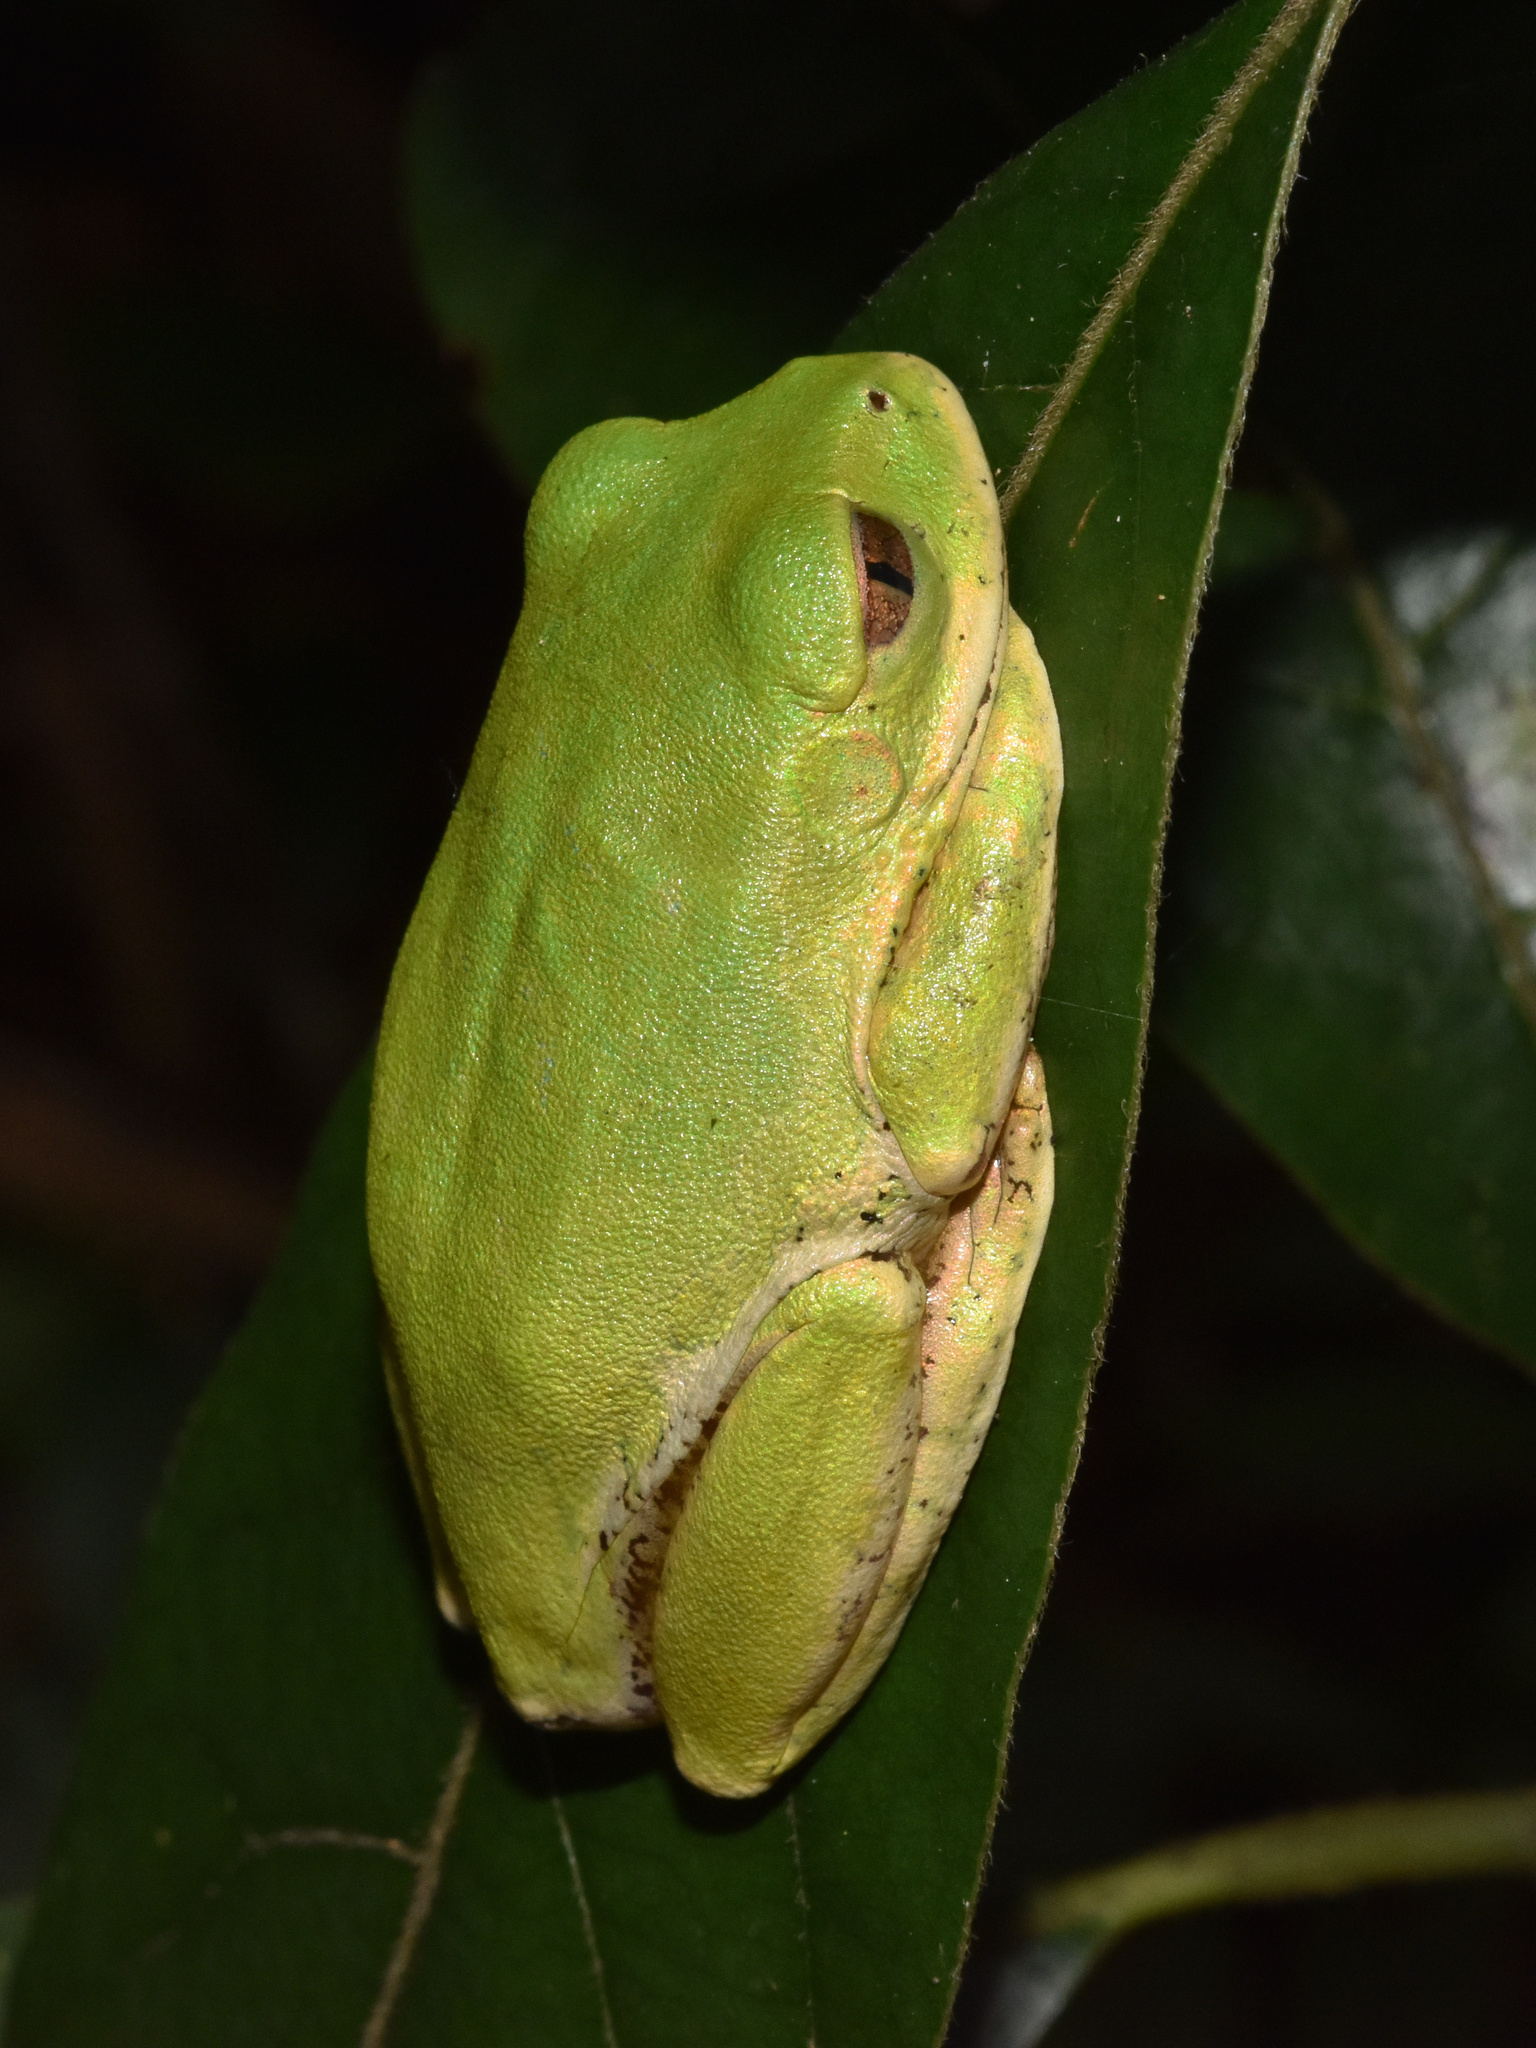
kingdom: Animalia
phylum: Chordata
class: Amphibia
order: Anura
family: Arthroleptidae
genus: Leptopelis
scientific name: Leptopelis natalensis
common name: Natal tree frog
